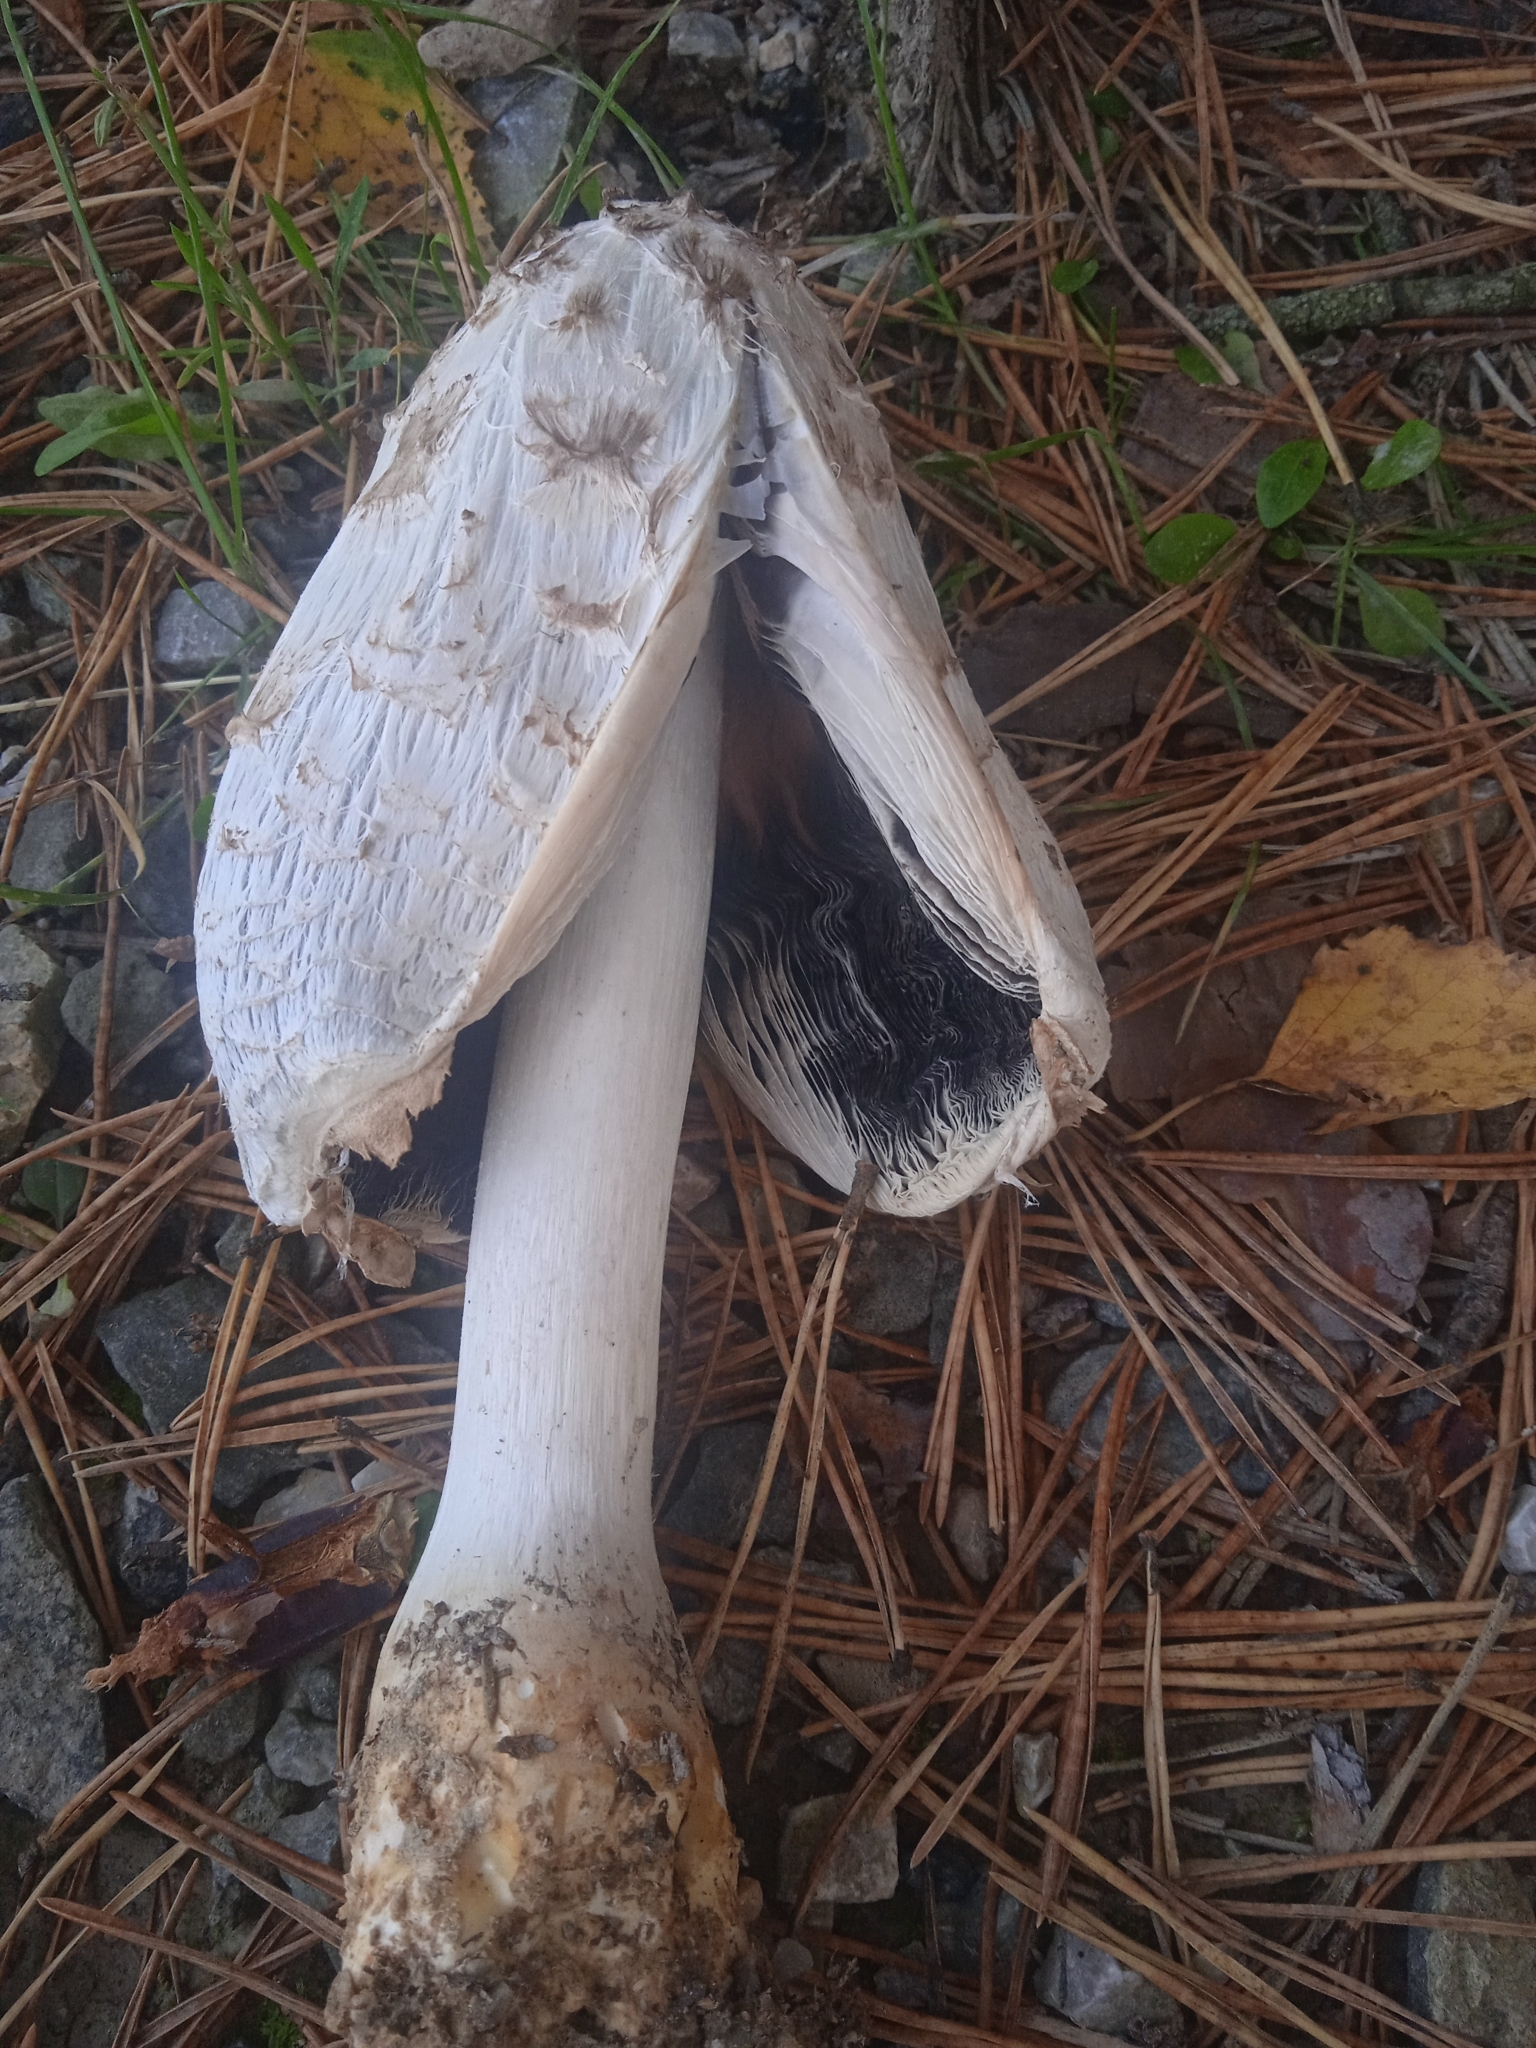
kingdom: Fungi
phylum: Basidiomycota
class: Agaricomycetes
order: Agaricales
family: Agaricaceae
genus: Coprinus
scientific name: Coprinus comatus
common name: Lawyer's wig
